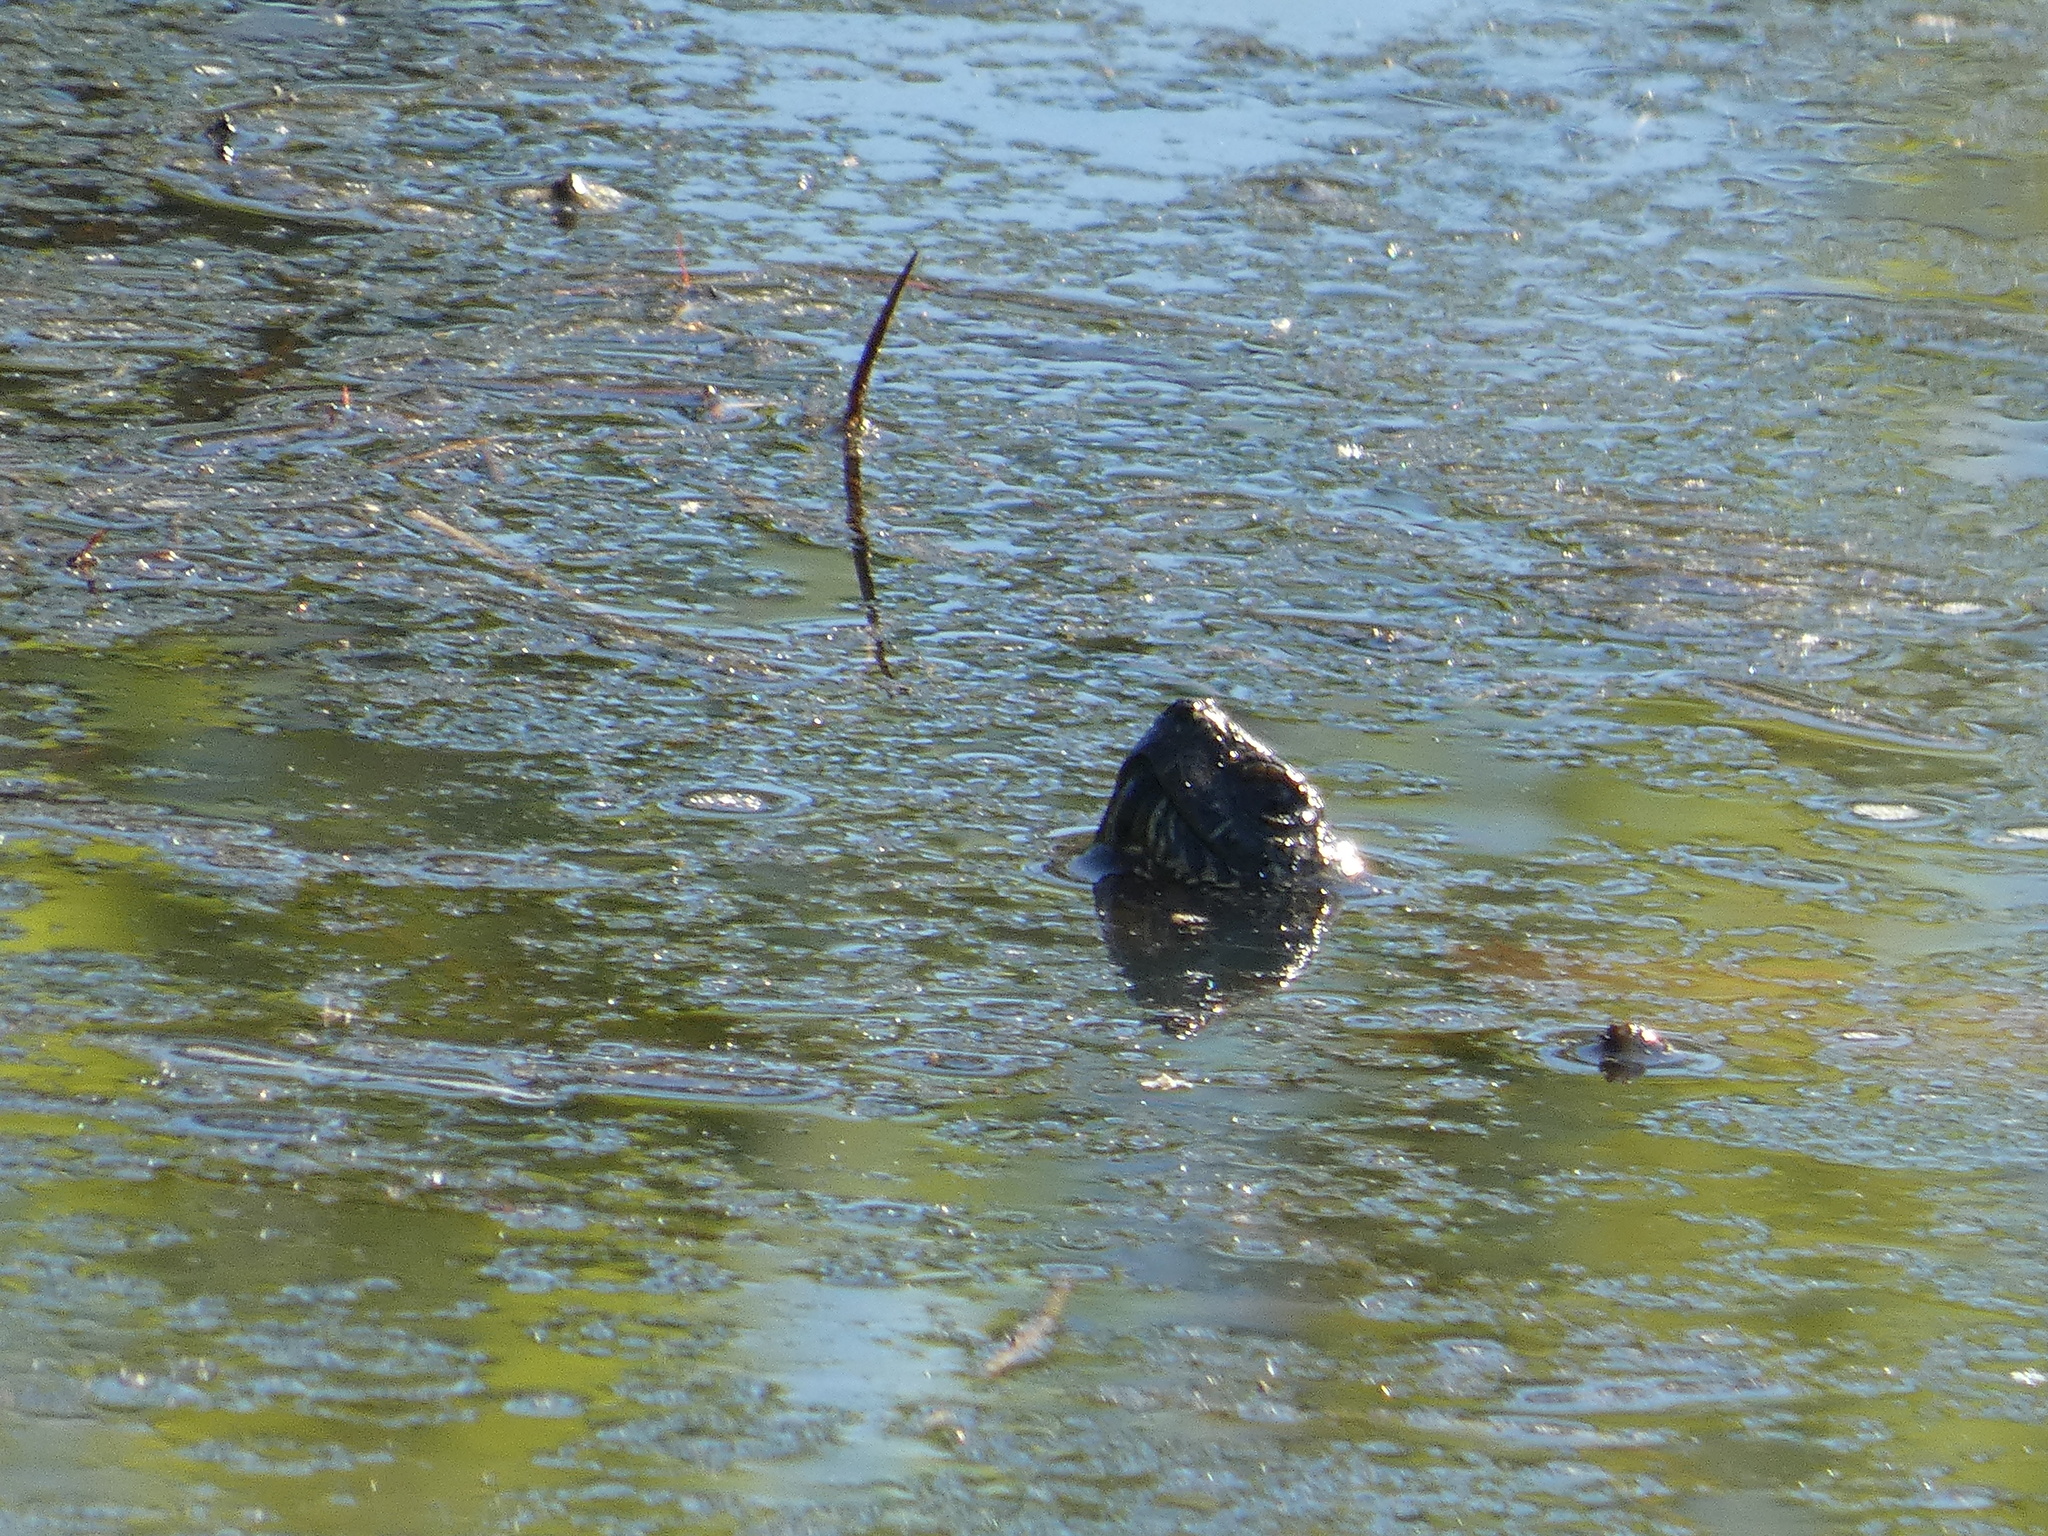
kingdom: Animalia
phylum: Chordata
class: Testudines
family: Emydidae
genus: Emys
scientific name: Emys orbicularis
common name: European pond turtle
